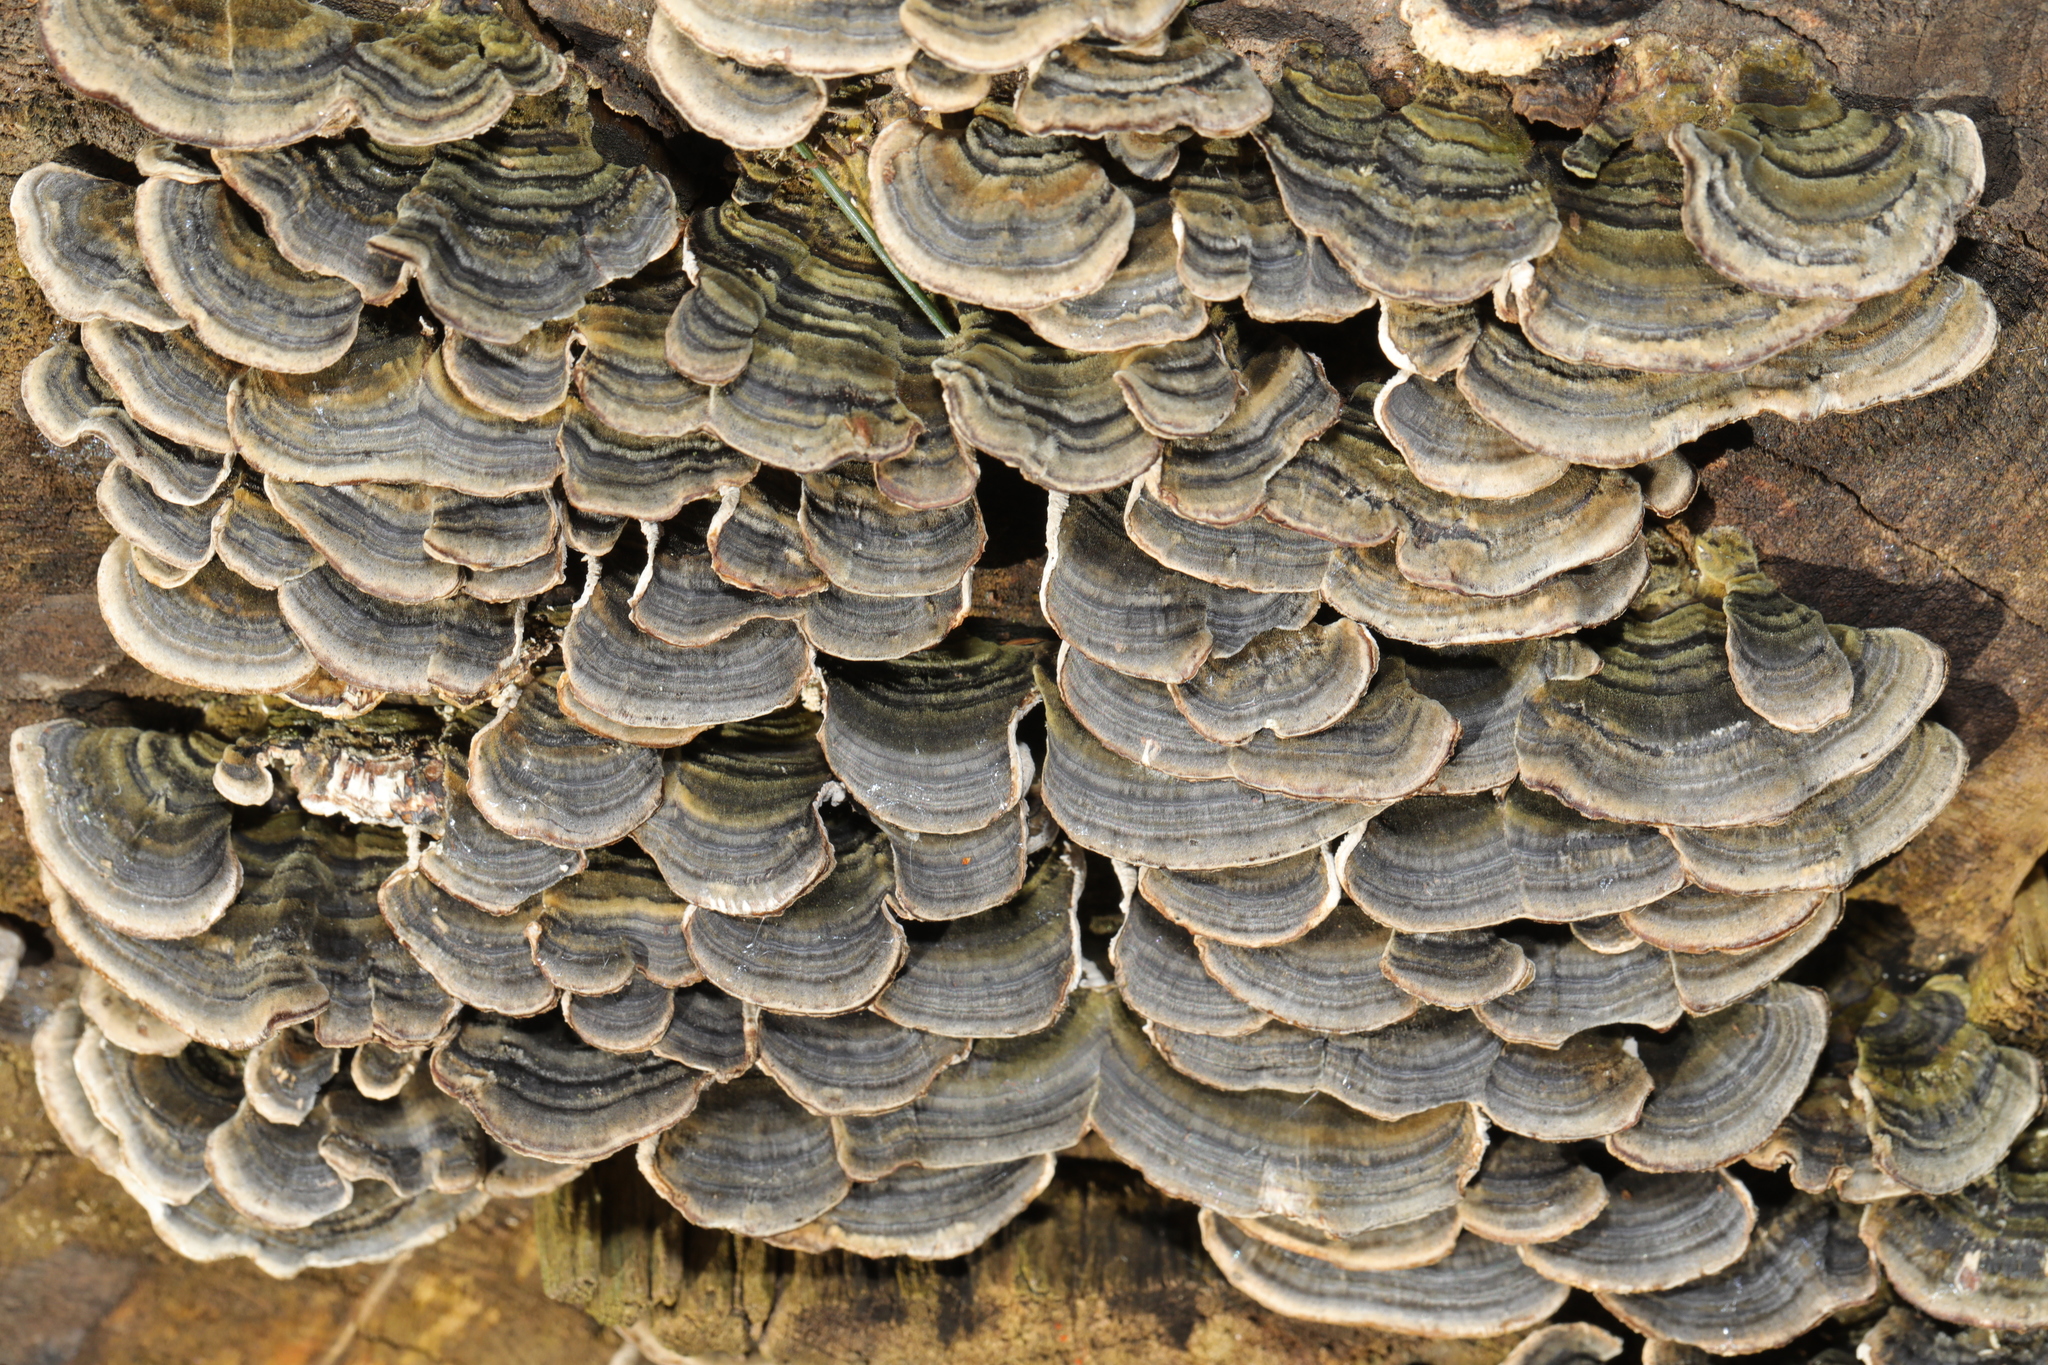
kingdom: Fungi
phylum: Basidiomycota
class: Agaricomycetes
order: Polyporales
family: Polyporaceae
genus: Trametes
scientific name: Trametes versicolor
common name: Turkeytail
